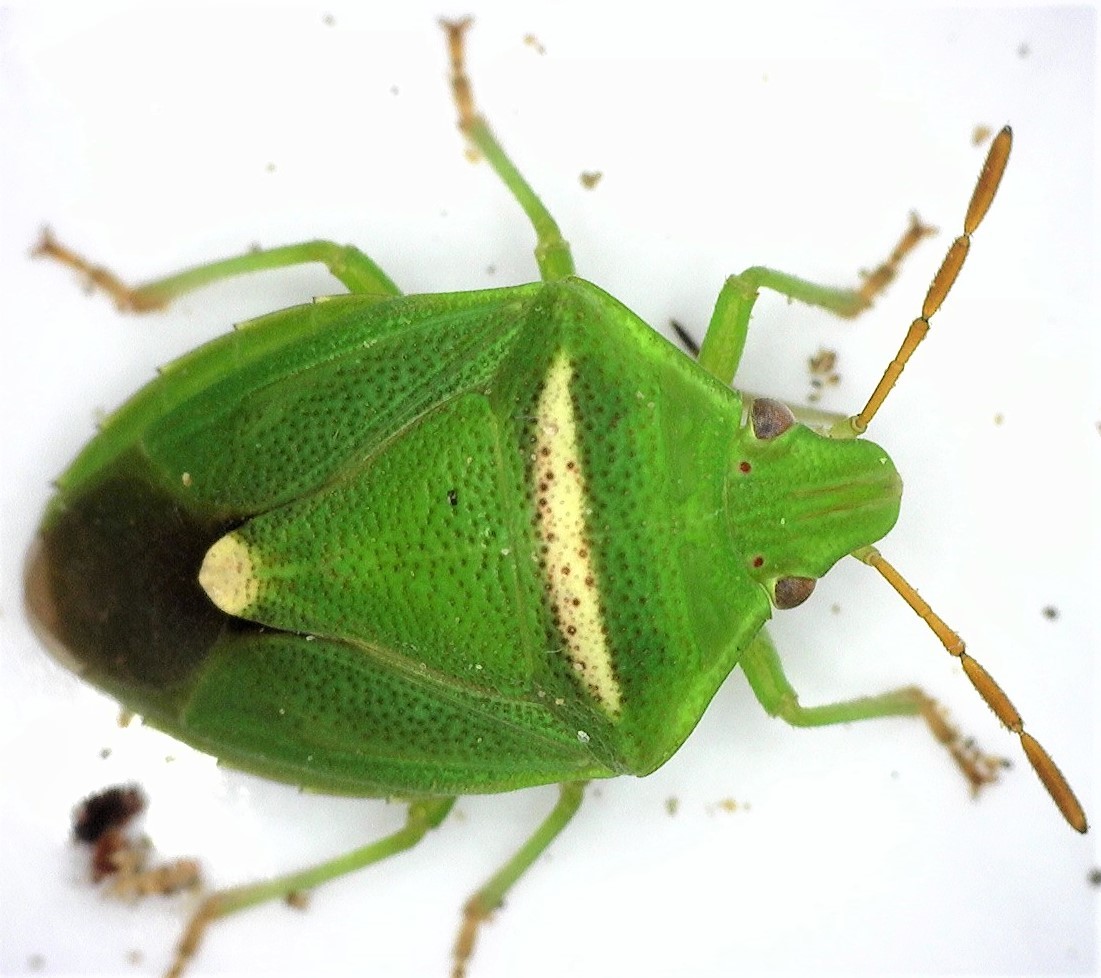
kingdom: Animalia
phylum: Arthropoda
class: Insecta
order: Hemiptera
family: Pentatomidae
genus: Ocirrhoe
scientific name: Ocirrhoe
